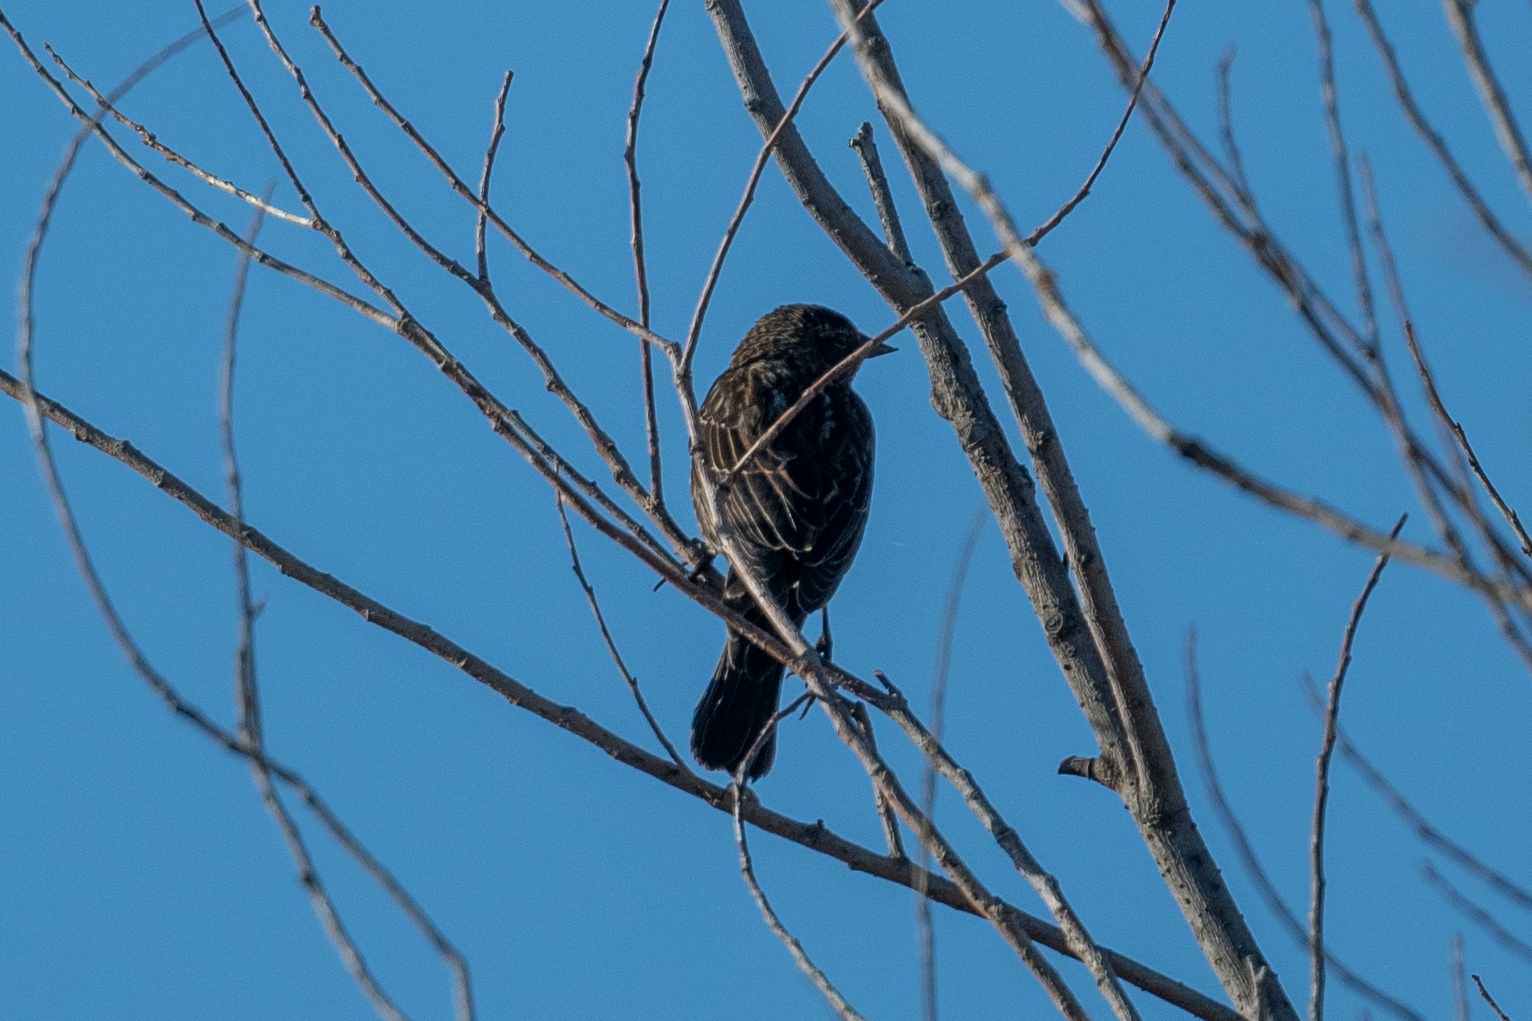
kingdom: Animalia
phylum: Chordata
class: Aves
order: Passeriformes
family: Icteridae
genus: Agelaius
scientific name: Agelaius phoeniceus
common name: Red-winged blackbird
